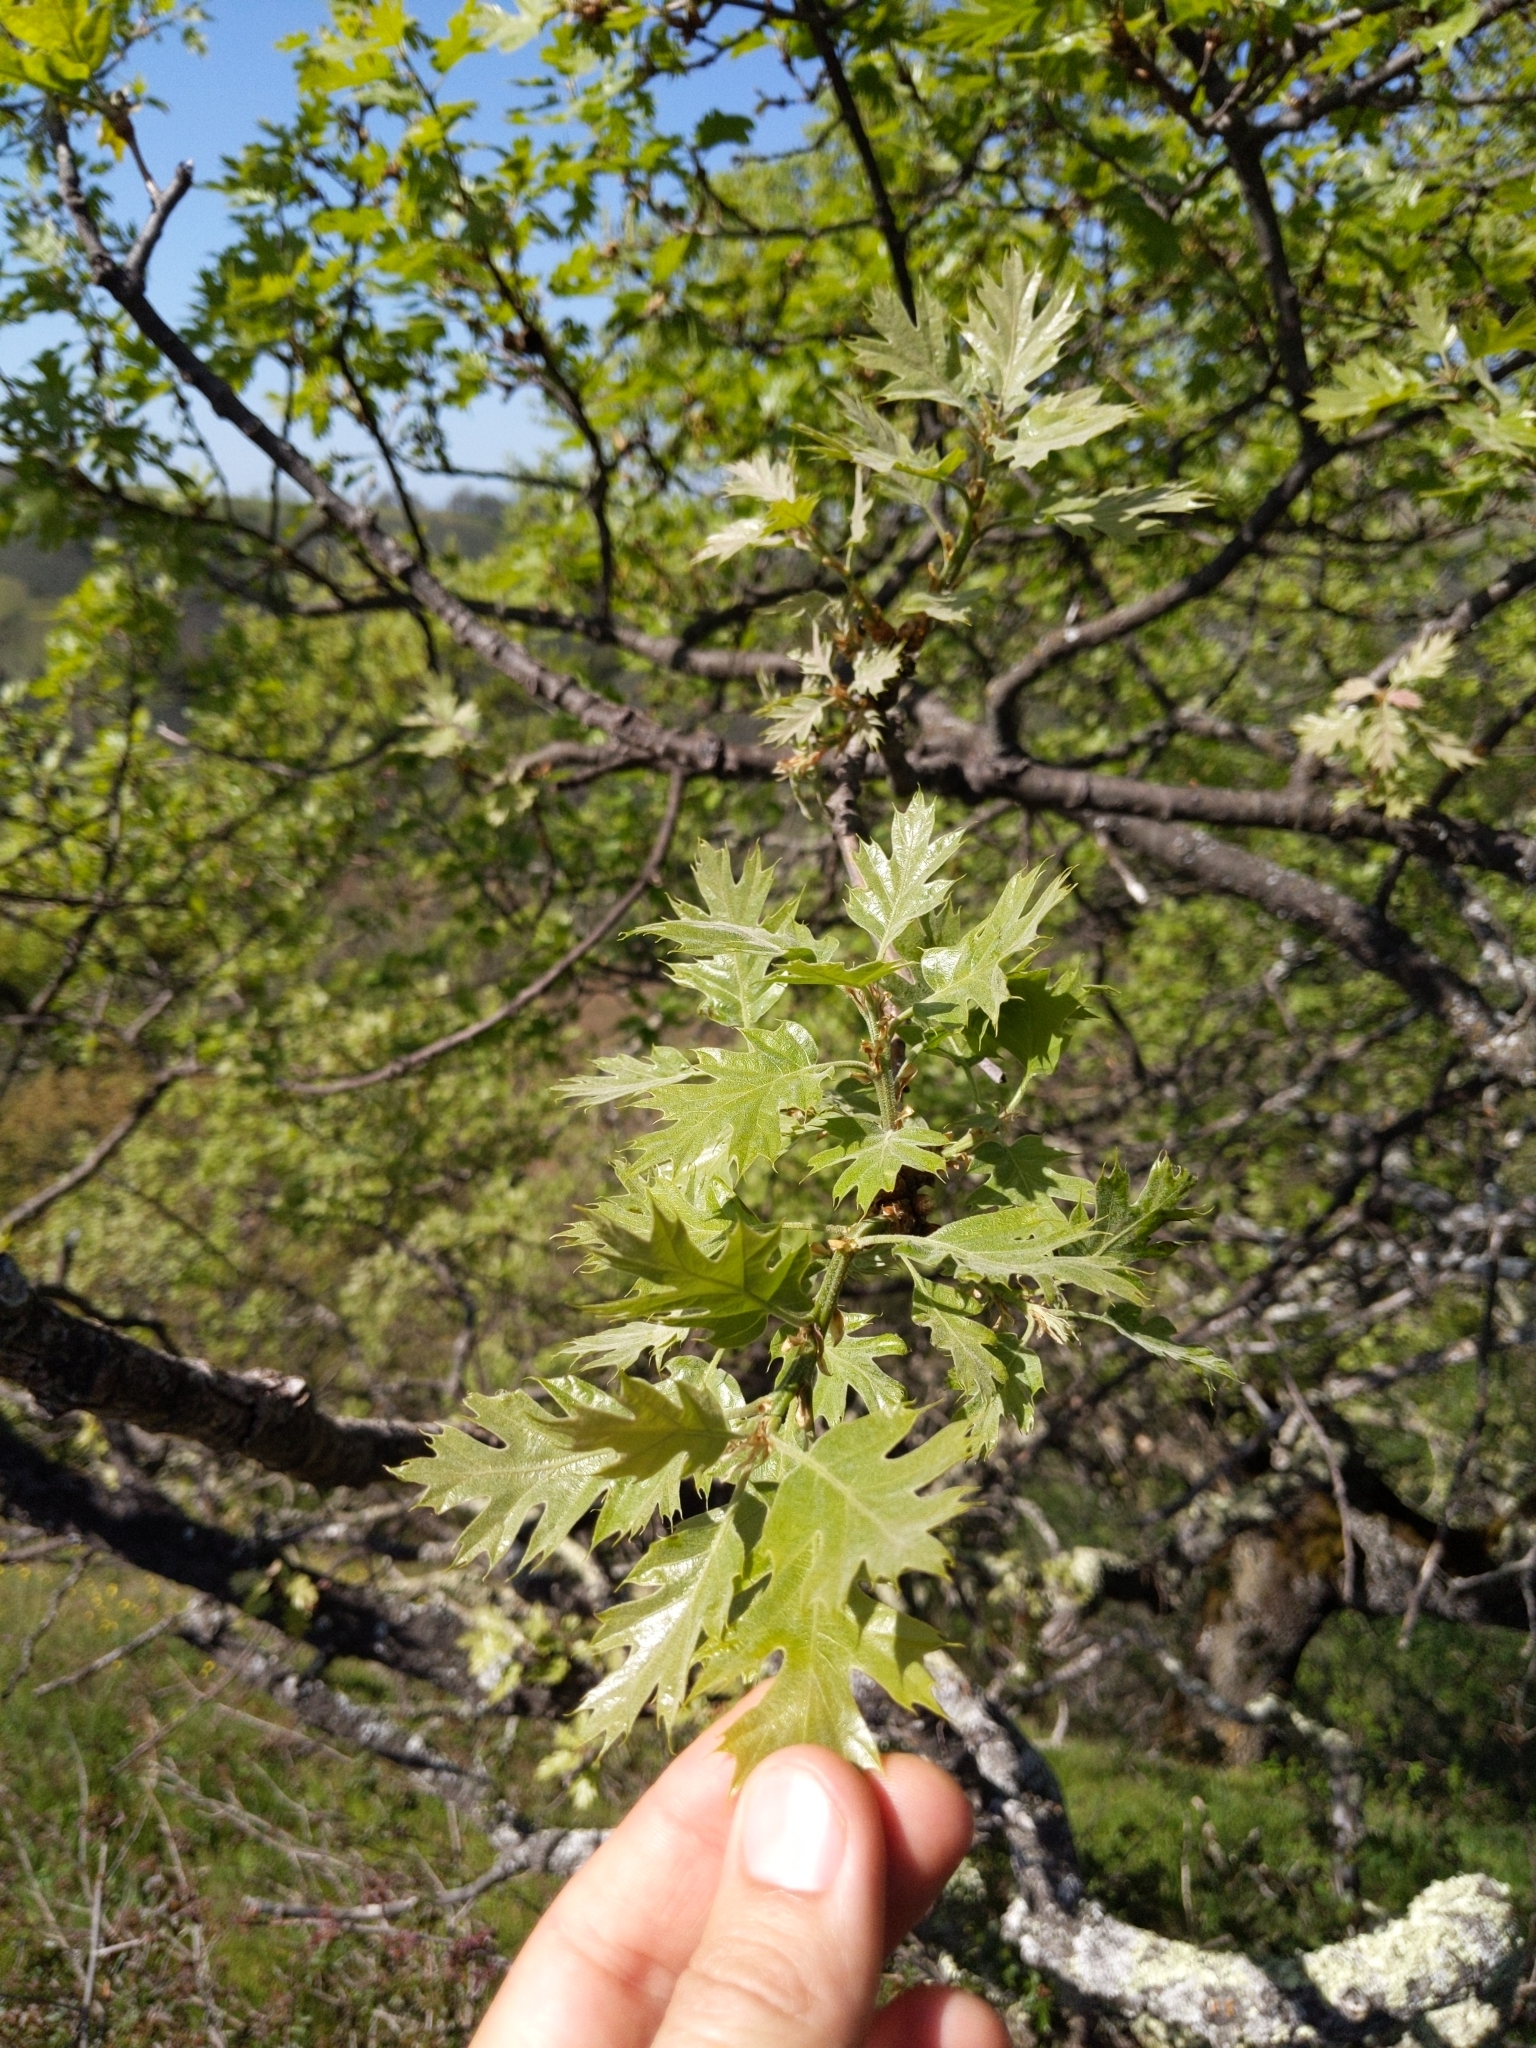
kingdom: Plantae
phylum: Tracheophyta
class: Magnoliopsida
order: Fagales
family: Fagaceae
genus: Quercus
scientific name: Quercus kelloggii
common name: California black oak
